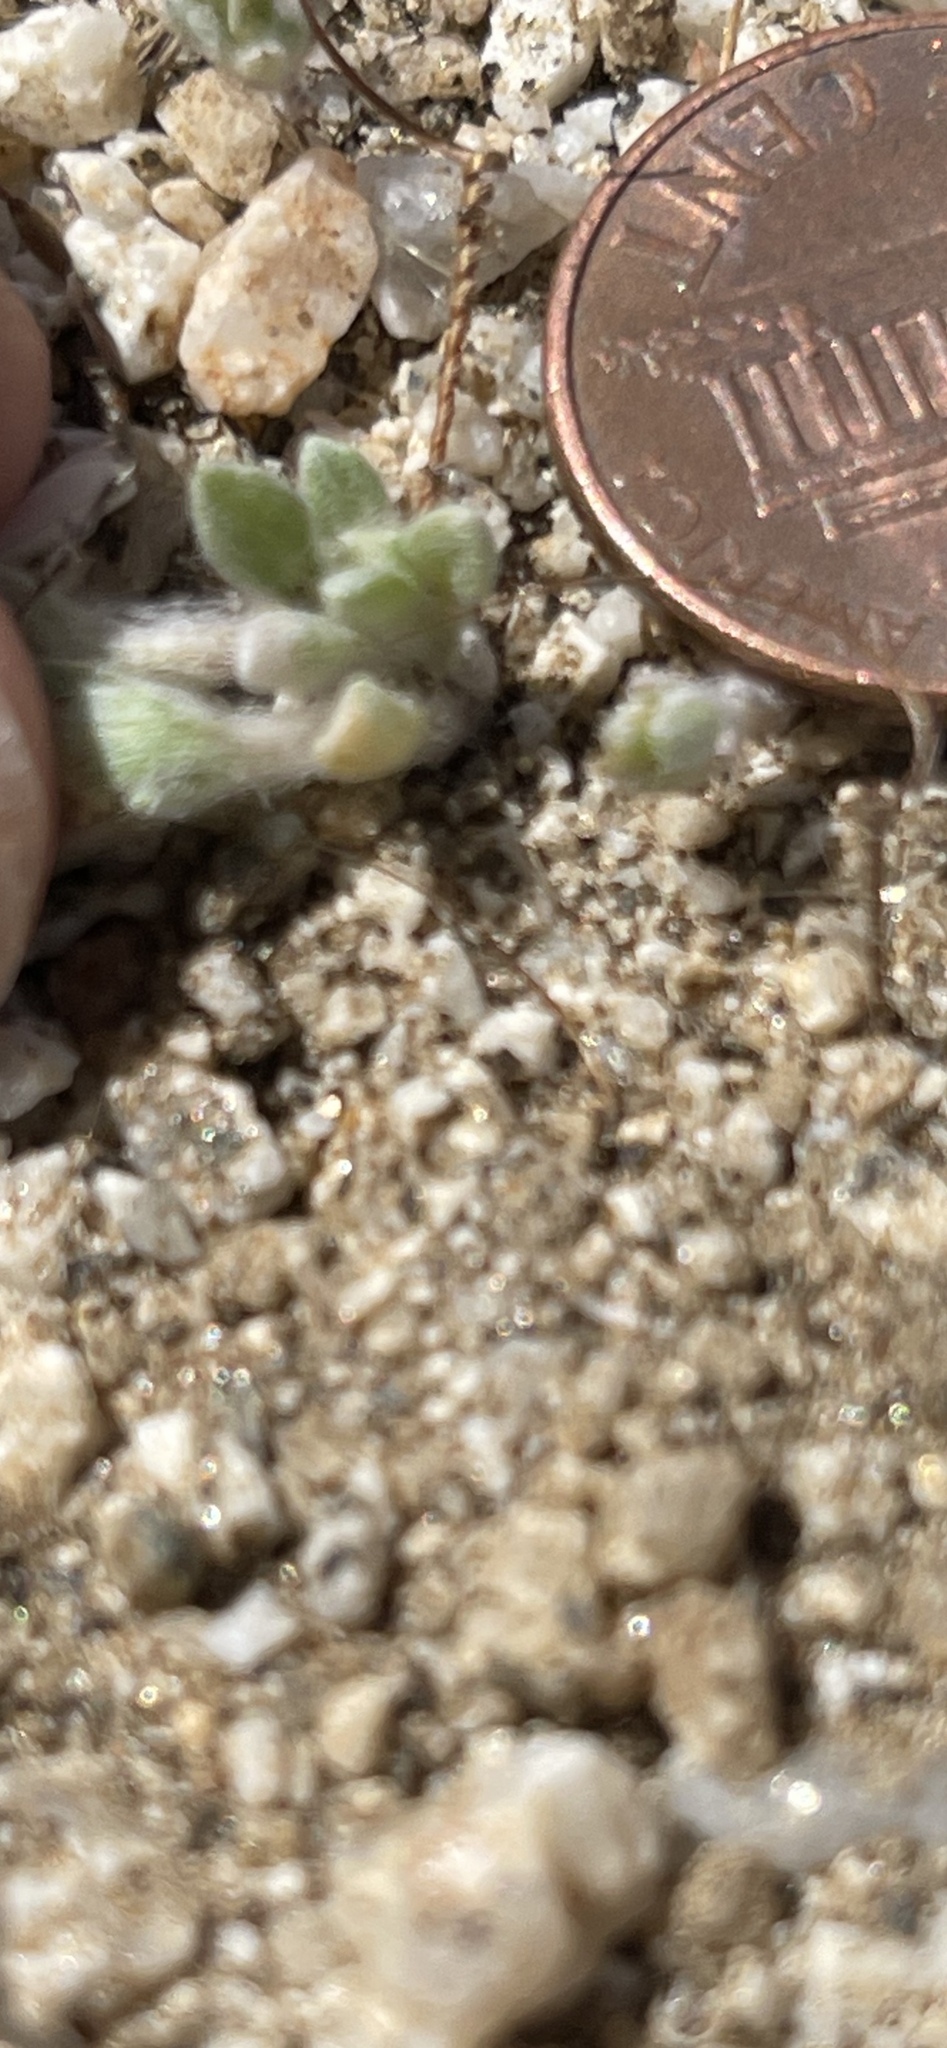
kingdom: Plantae
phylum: Tracheophyta
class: Magnoliopsida
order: Asterales
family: Asteraceae
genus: Eriophyllum
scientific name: Eriophyllum wallacei
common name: Wallace's woolly daisy
